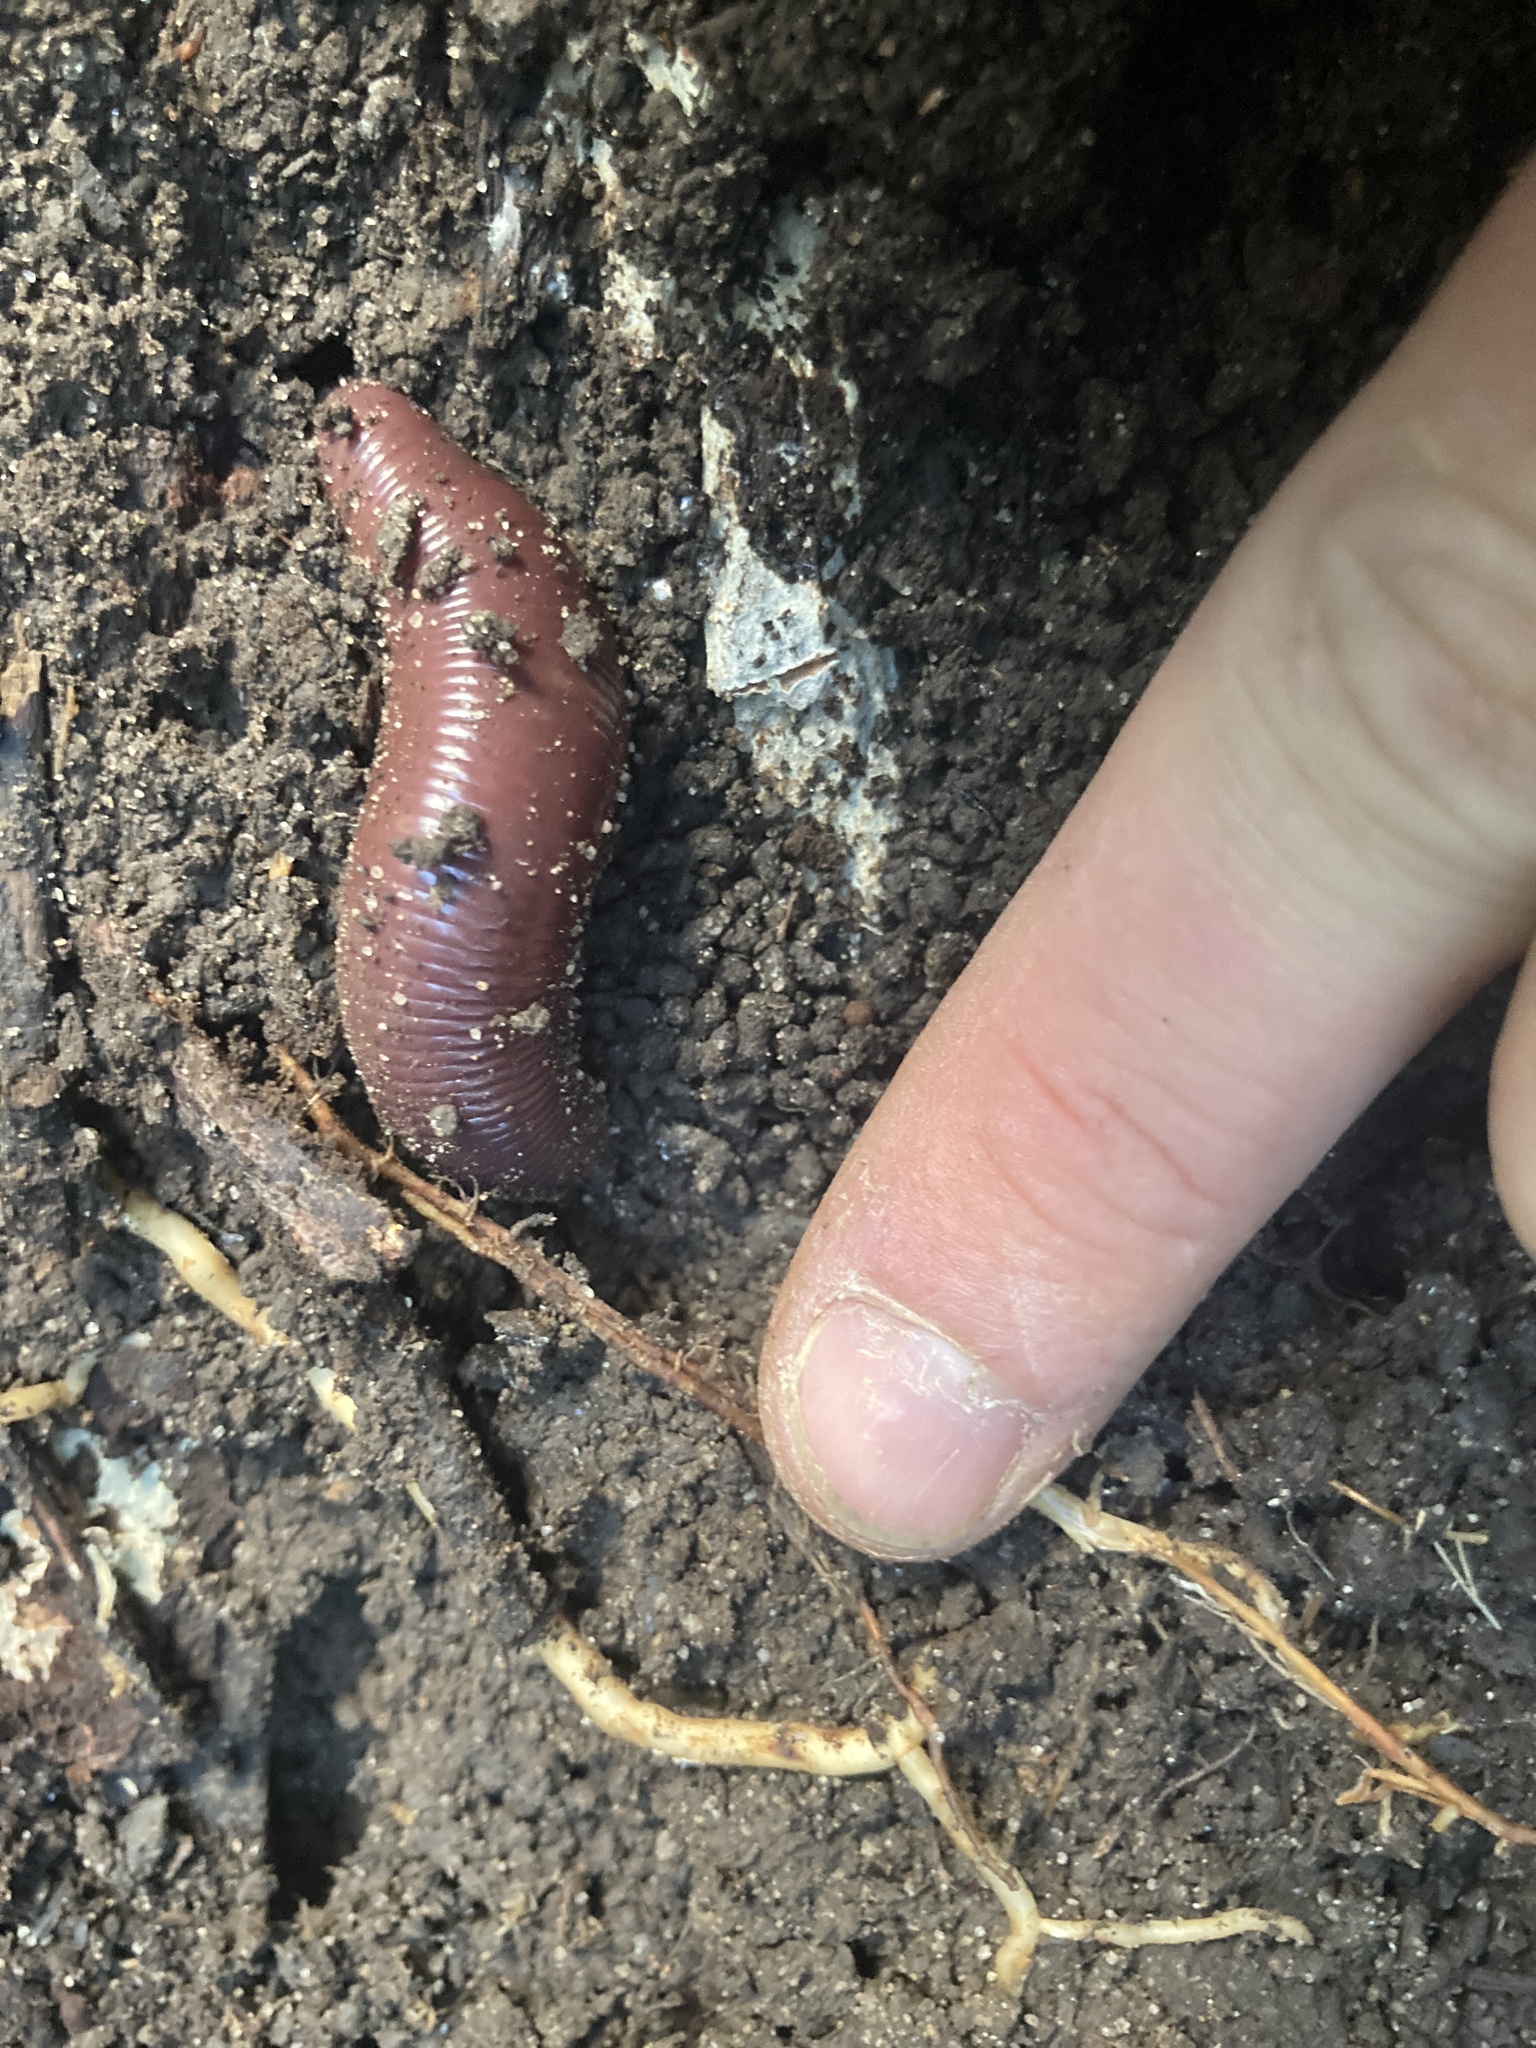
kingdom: Animalia
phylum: Annelida
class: Clitellata
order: Crassiclitellata
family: Megascolecidae
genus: Digaster
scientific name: Digaster sylvaticus
